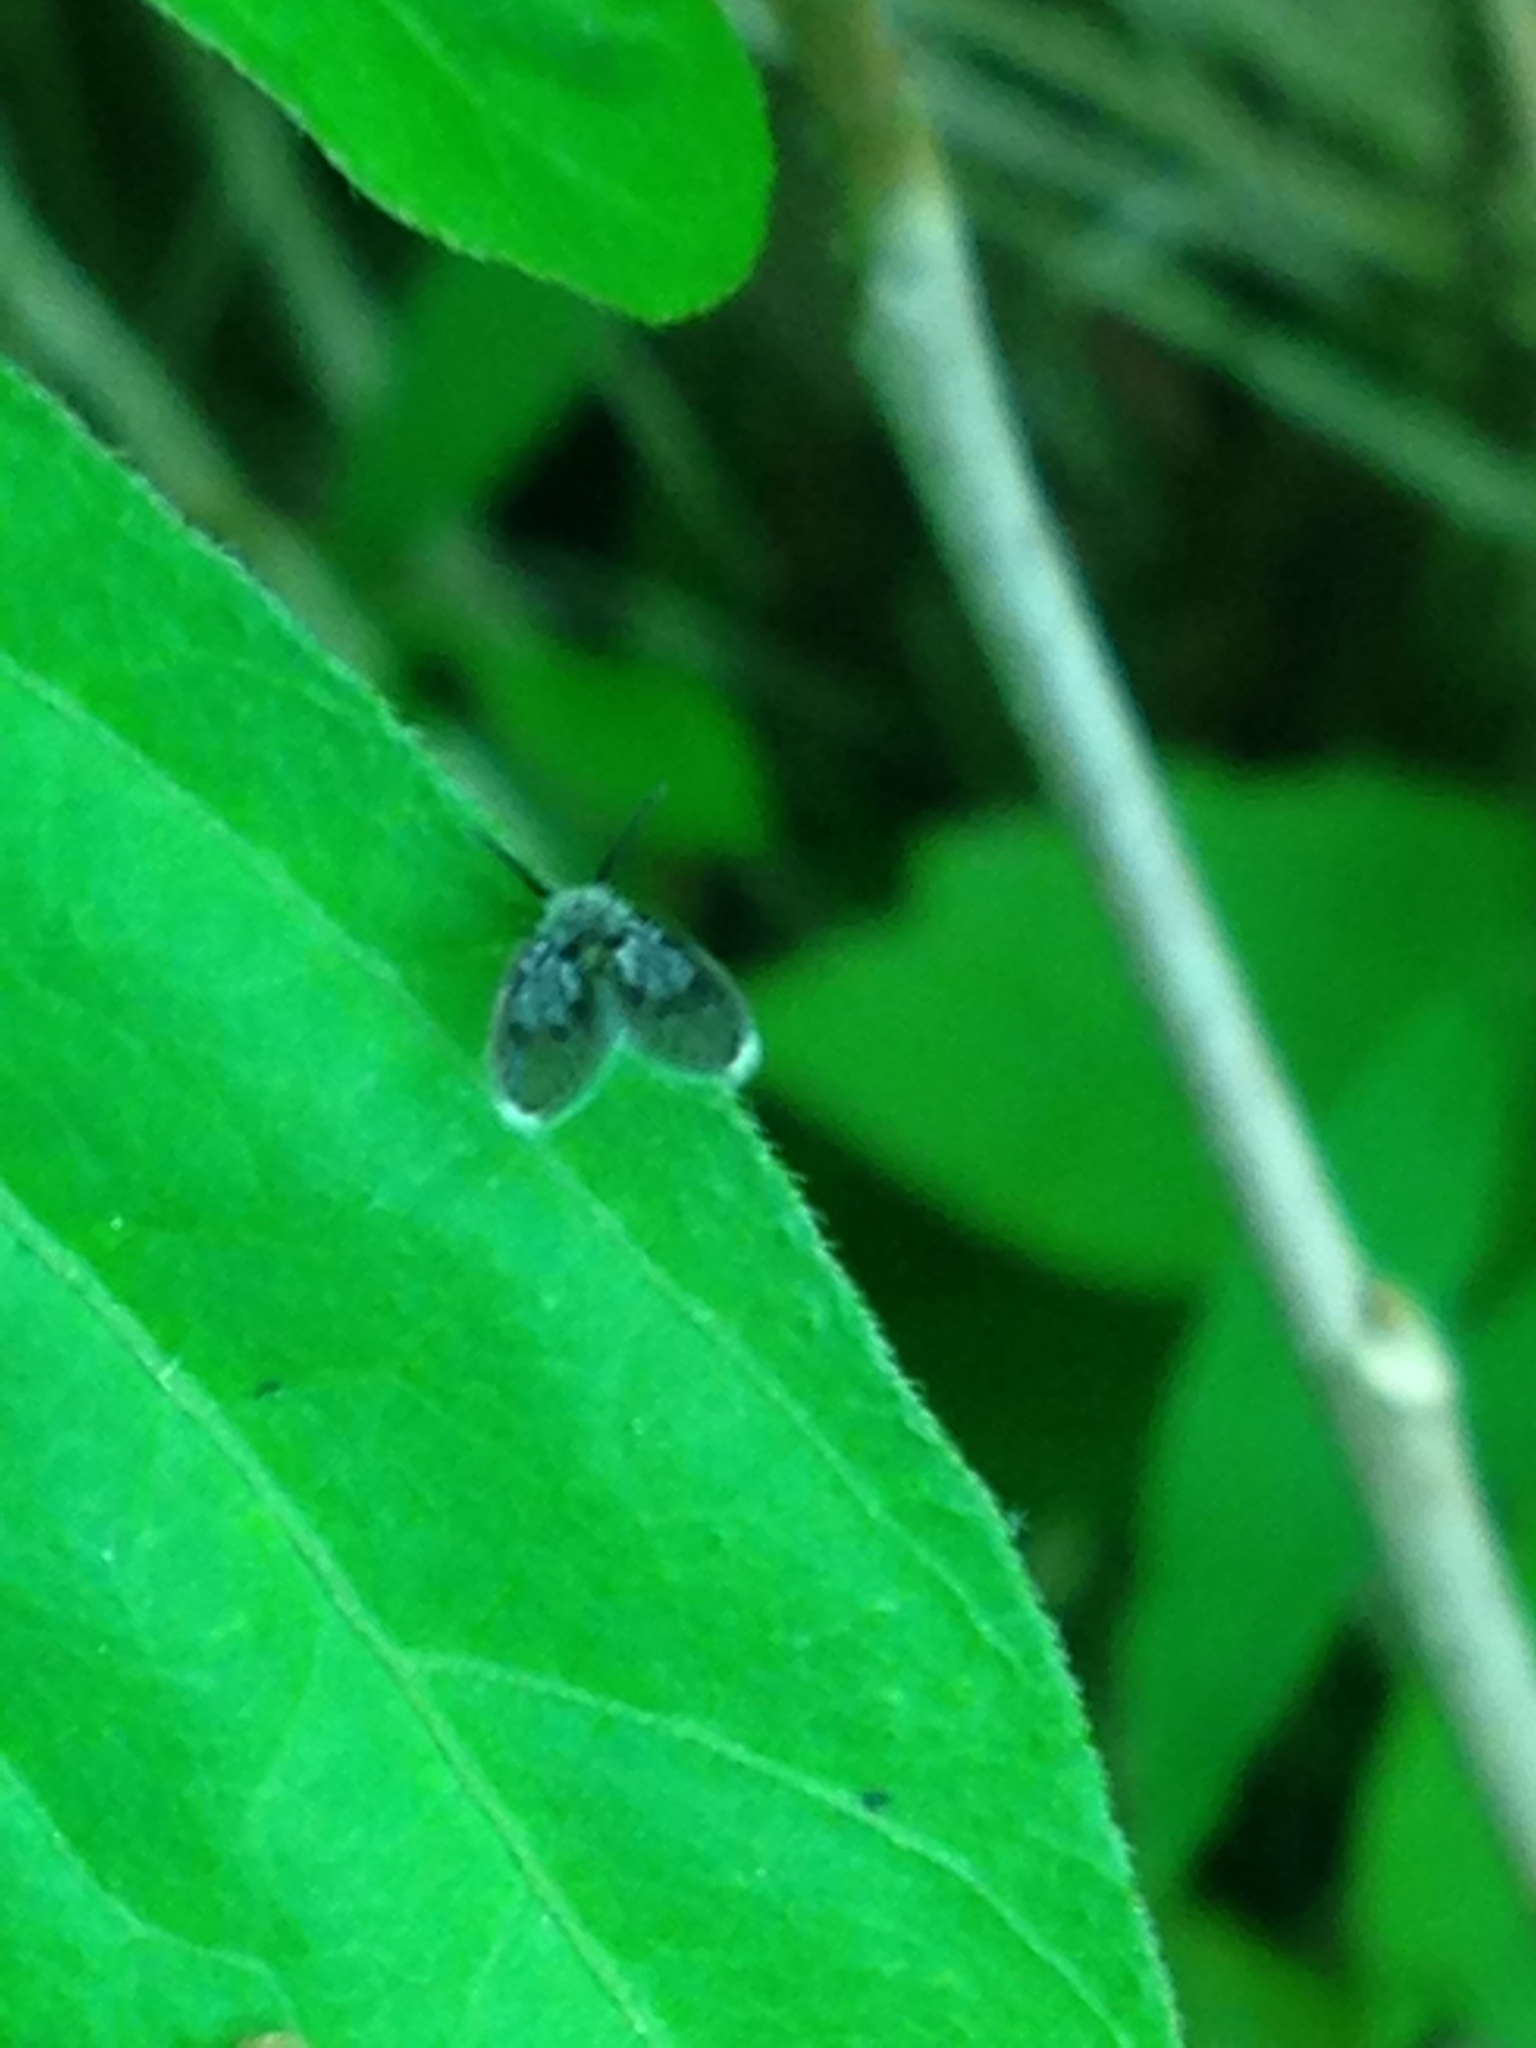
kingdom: Animalia
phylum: Arthropoda
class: Insecta
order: Diptera
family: Psychodidae
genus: Lepiseodina
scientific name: Lepiseodina
